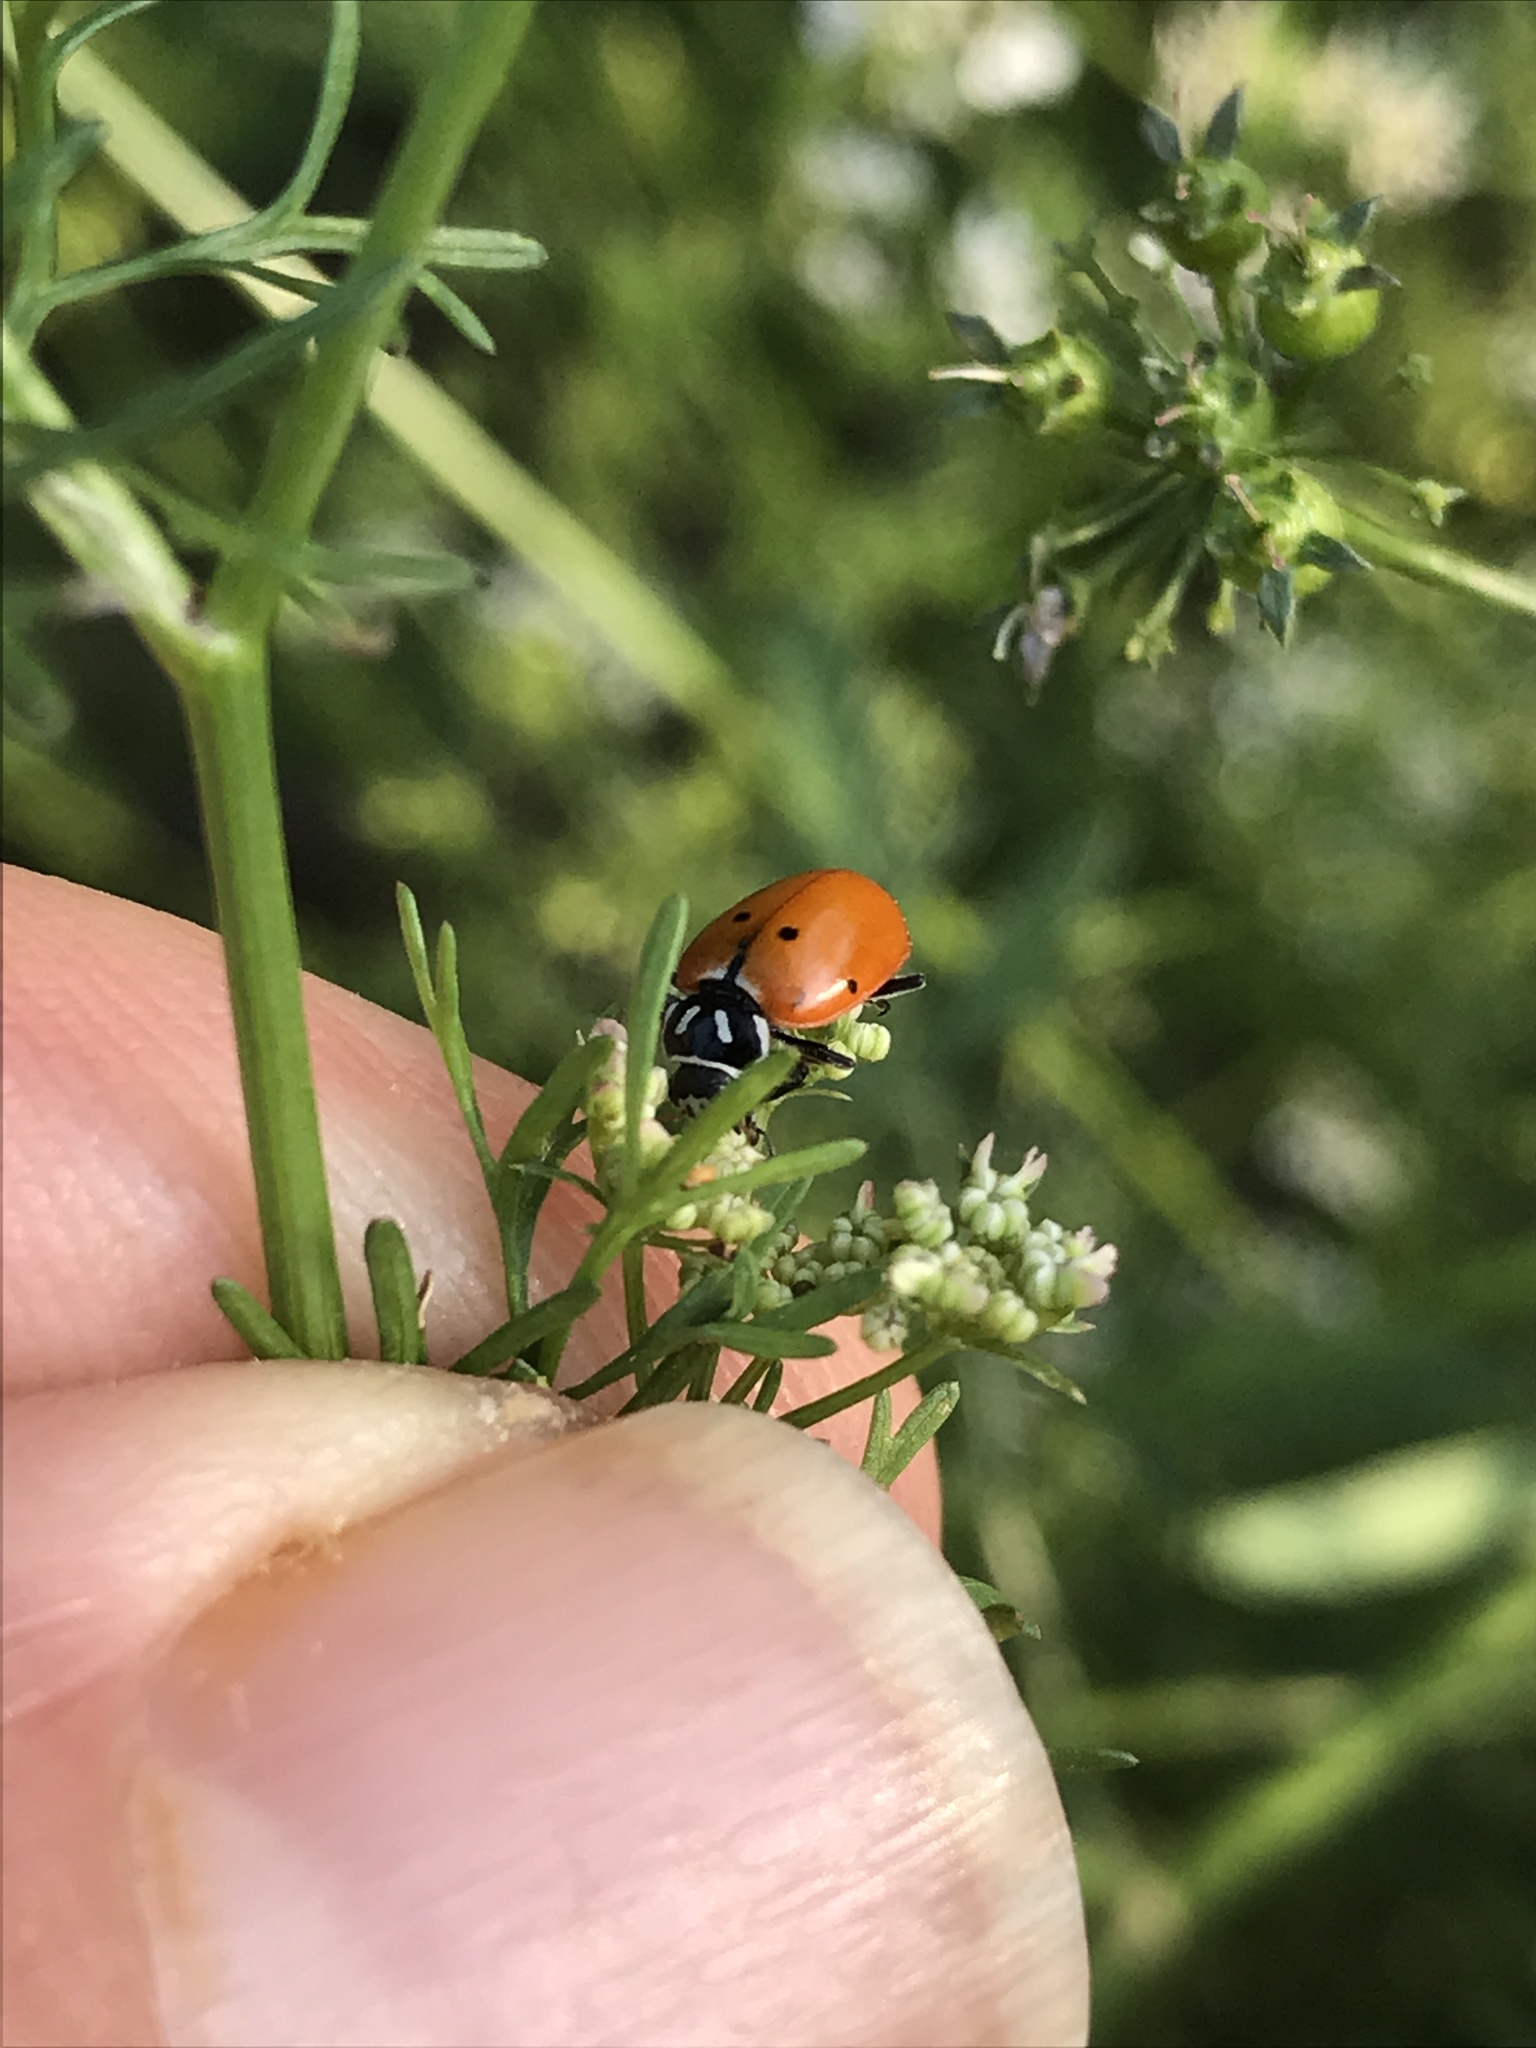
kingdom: Animalia
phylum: Arthropoda
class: Insecta
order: Coleoptera
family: Coccinellidae
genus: Hippodamia
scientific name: Hippodamia convergens
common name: Convergent lady beetle
